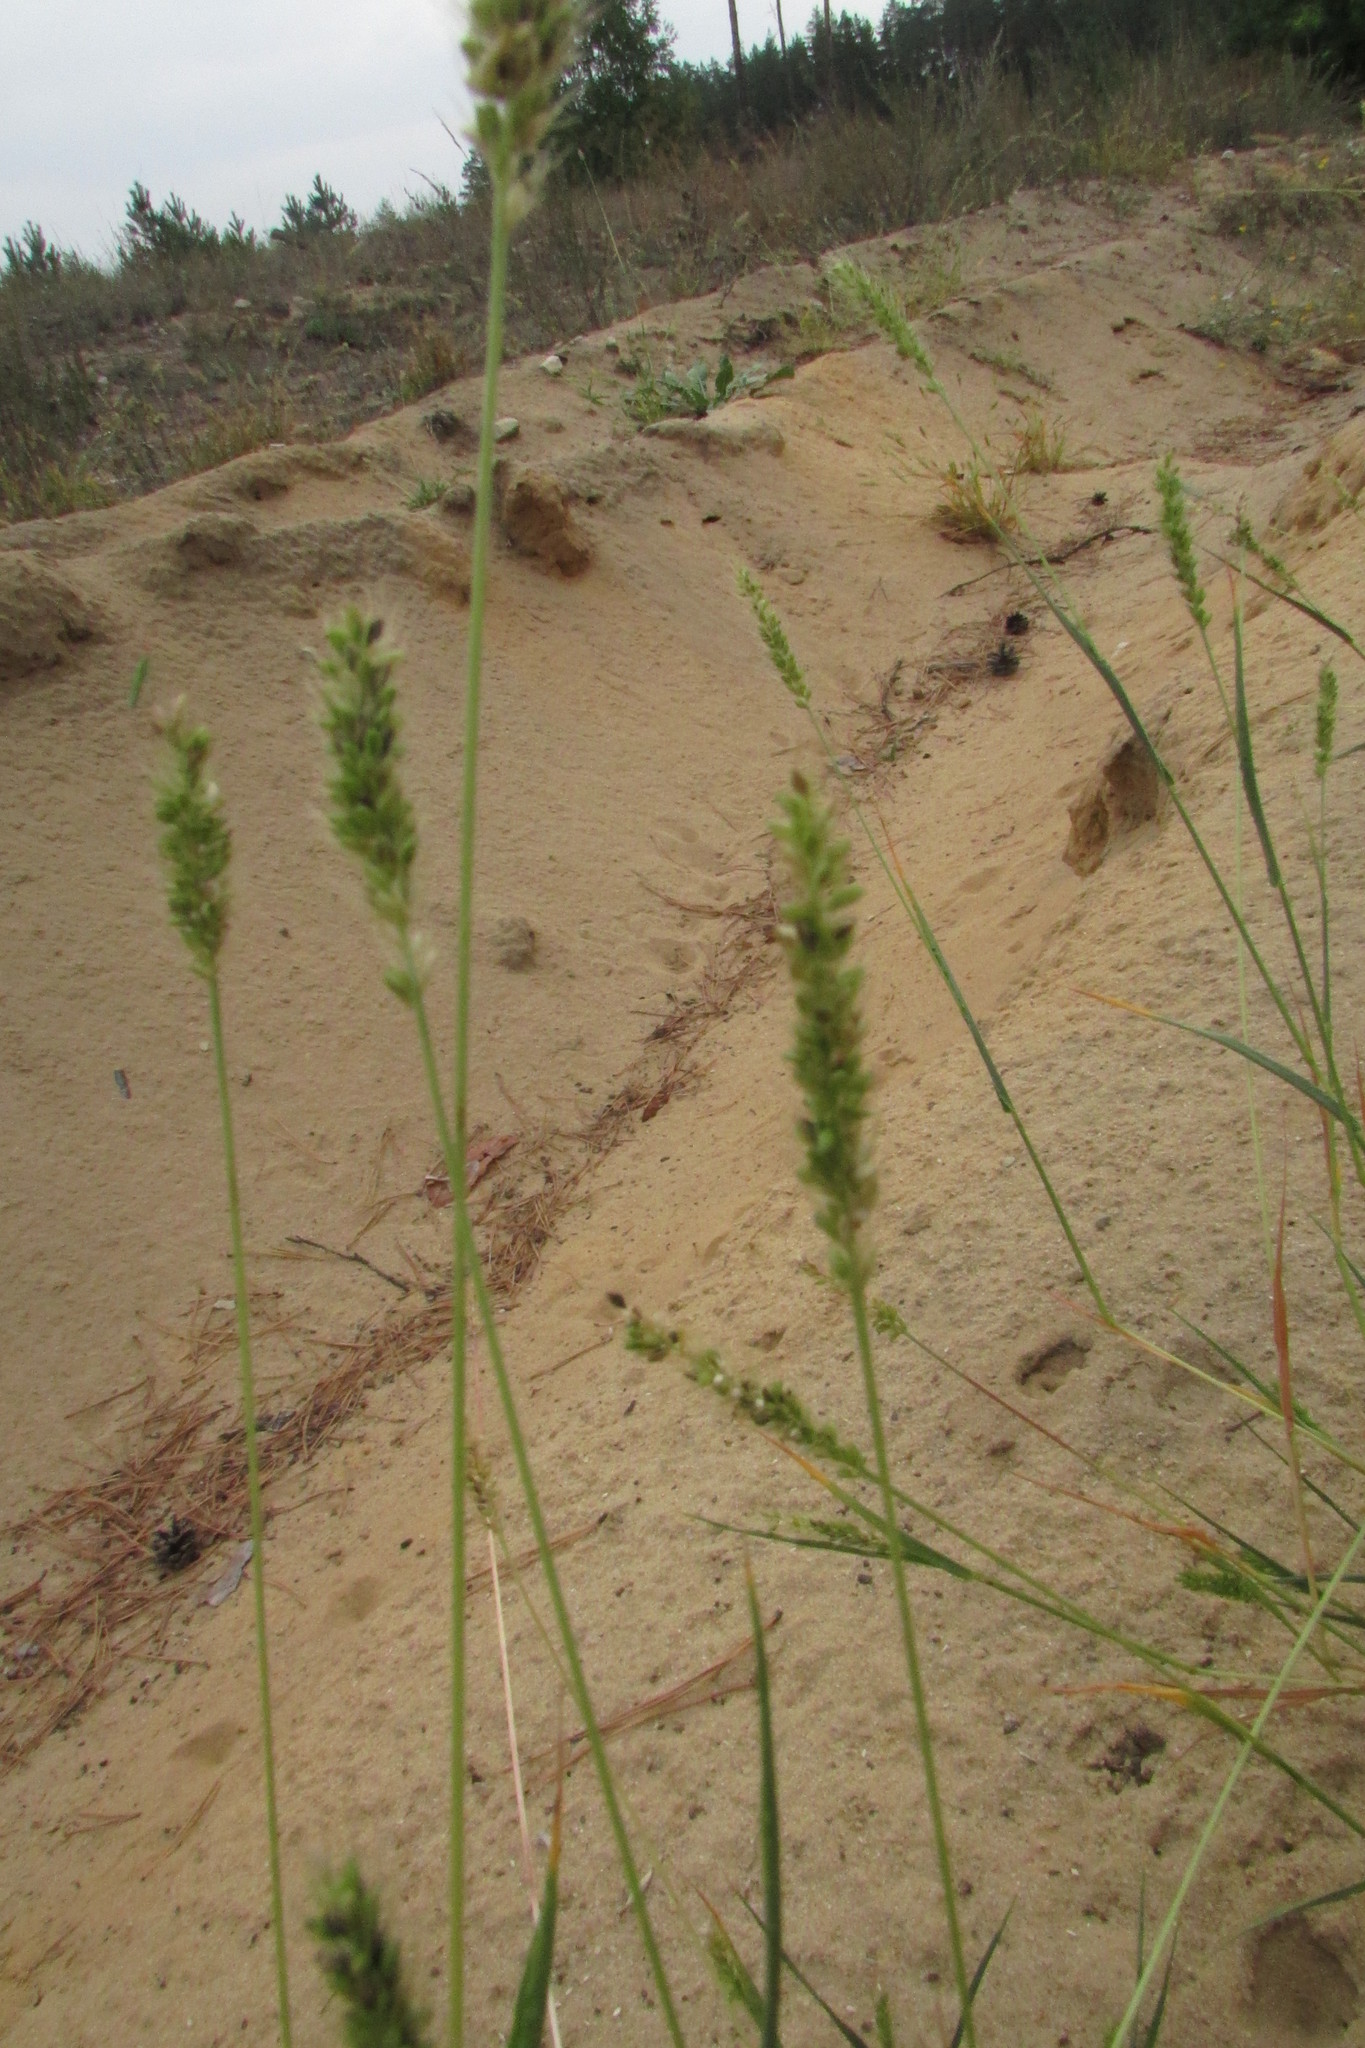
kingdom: Plantae
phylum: Tracheophyta
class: Liliopsida
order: Poales
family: Poaceae
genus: Setaria
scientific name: Setaria viridis
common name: Green bristlegrass
